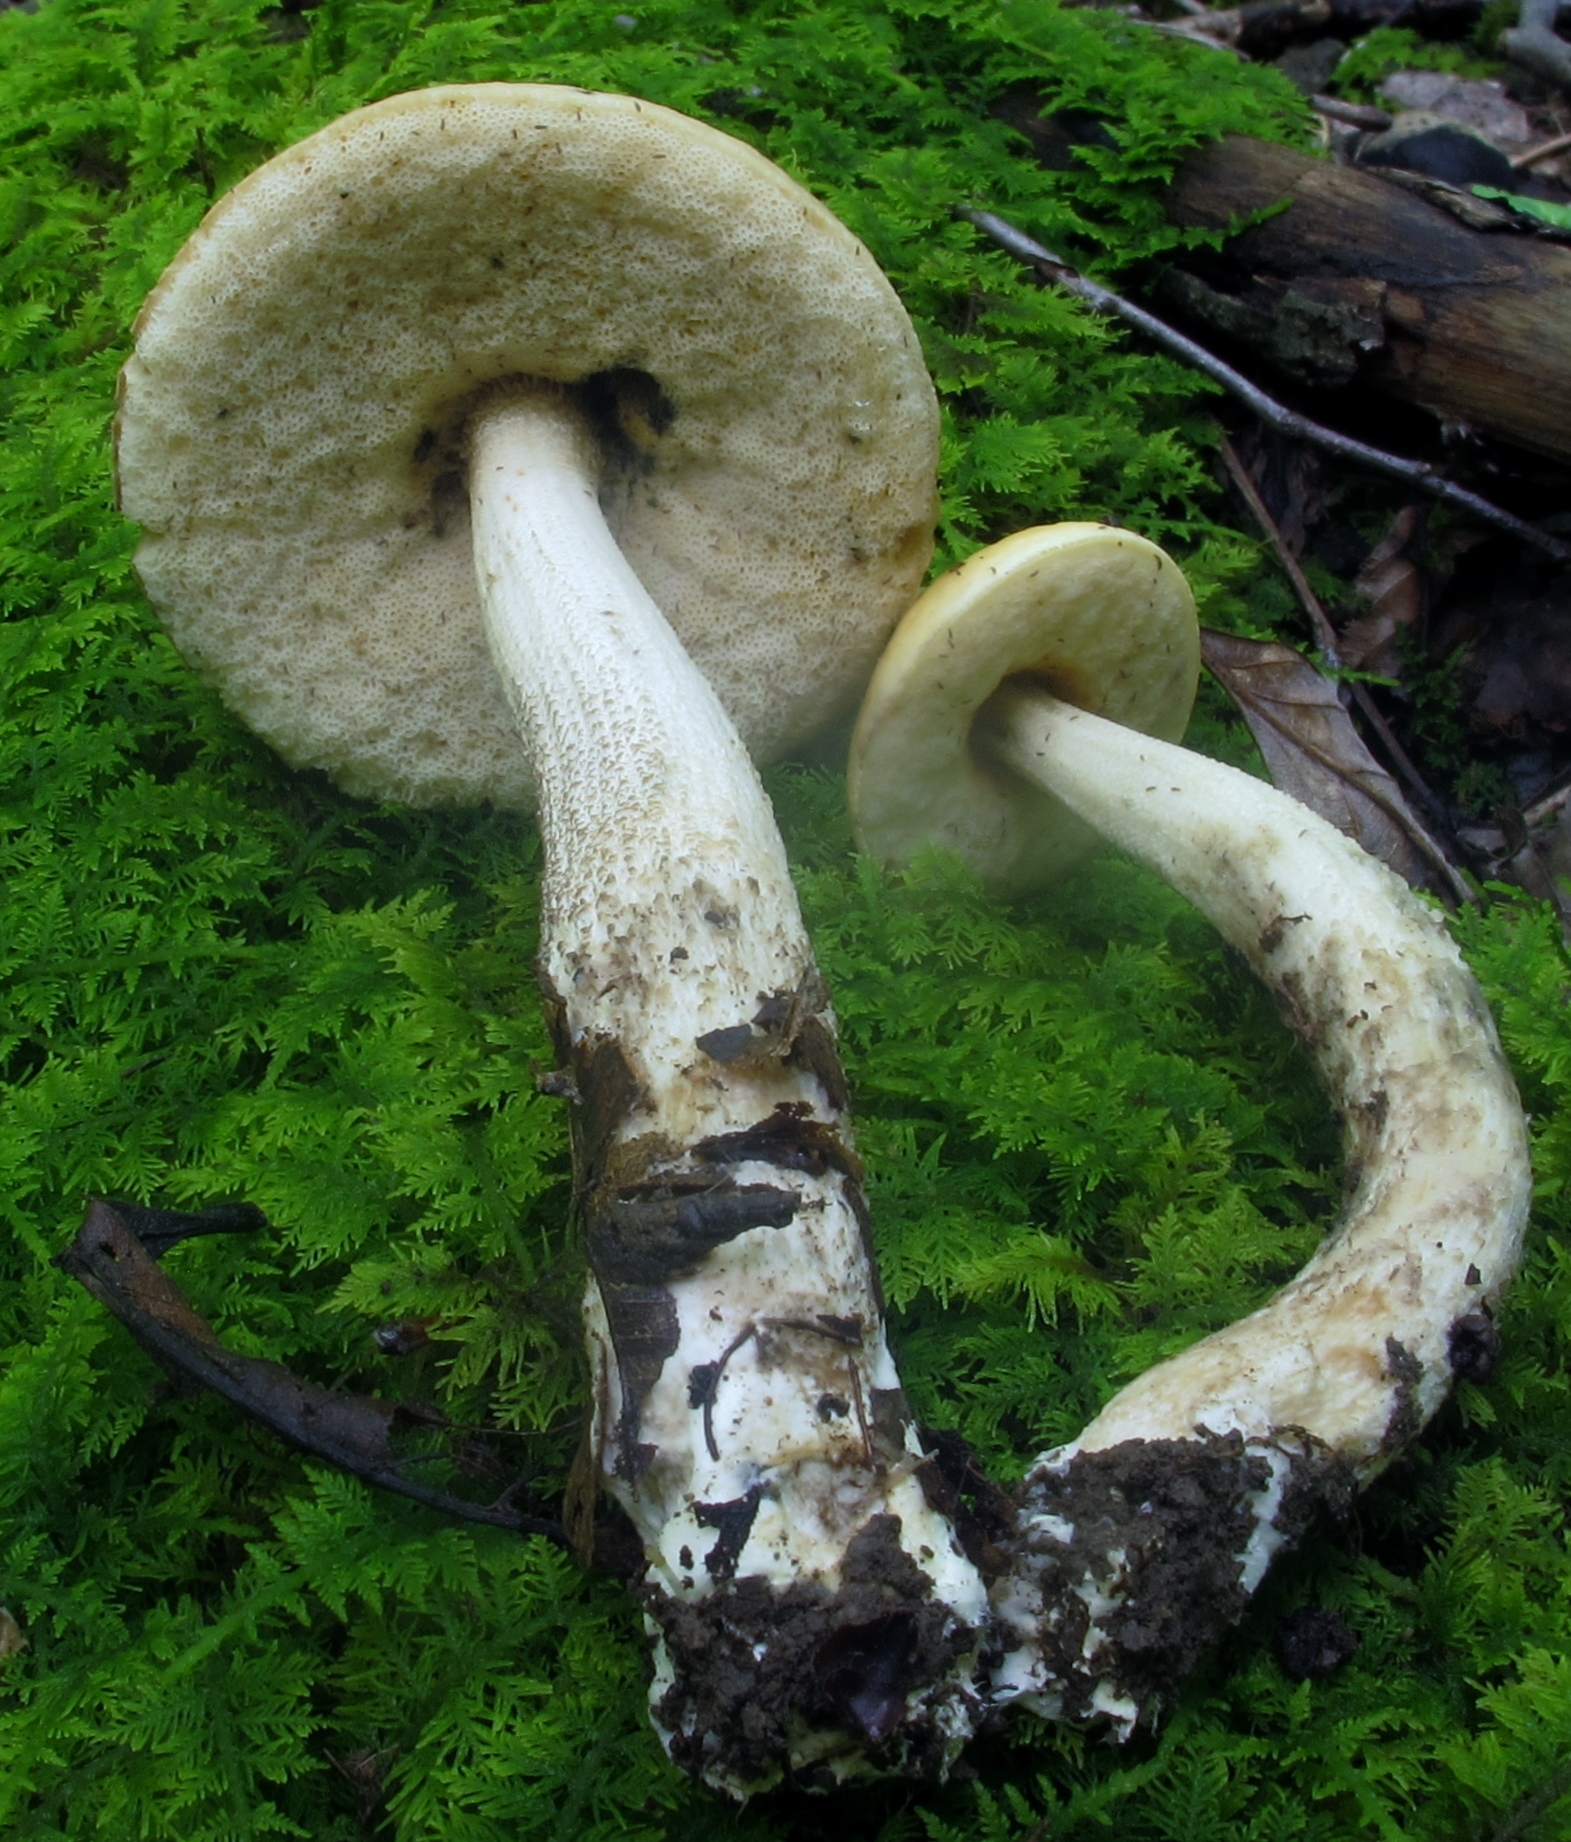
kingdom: Fungi
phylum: Basidiomycota
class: Agaricomycetes
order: Boletales
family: Boletaceae
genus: Leccinellum
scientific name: Leccinellum luteum
